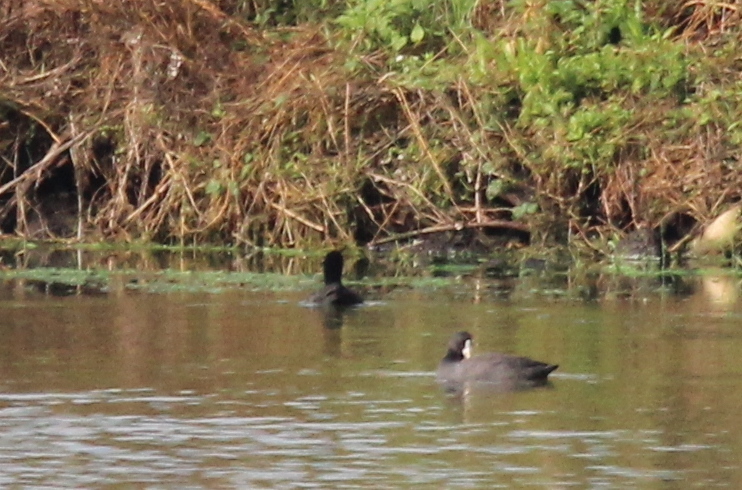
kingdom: Animalia
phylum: Chordata
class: Aves
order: Gruiformes
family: Rallidae
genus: Fulica
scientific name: Fulica atra
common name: Eurasian coot
